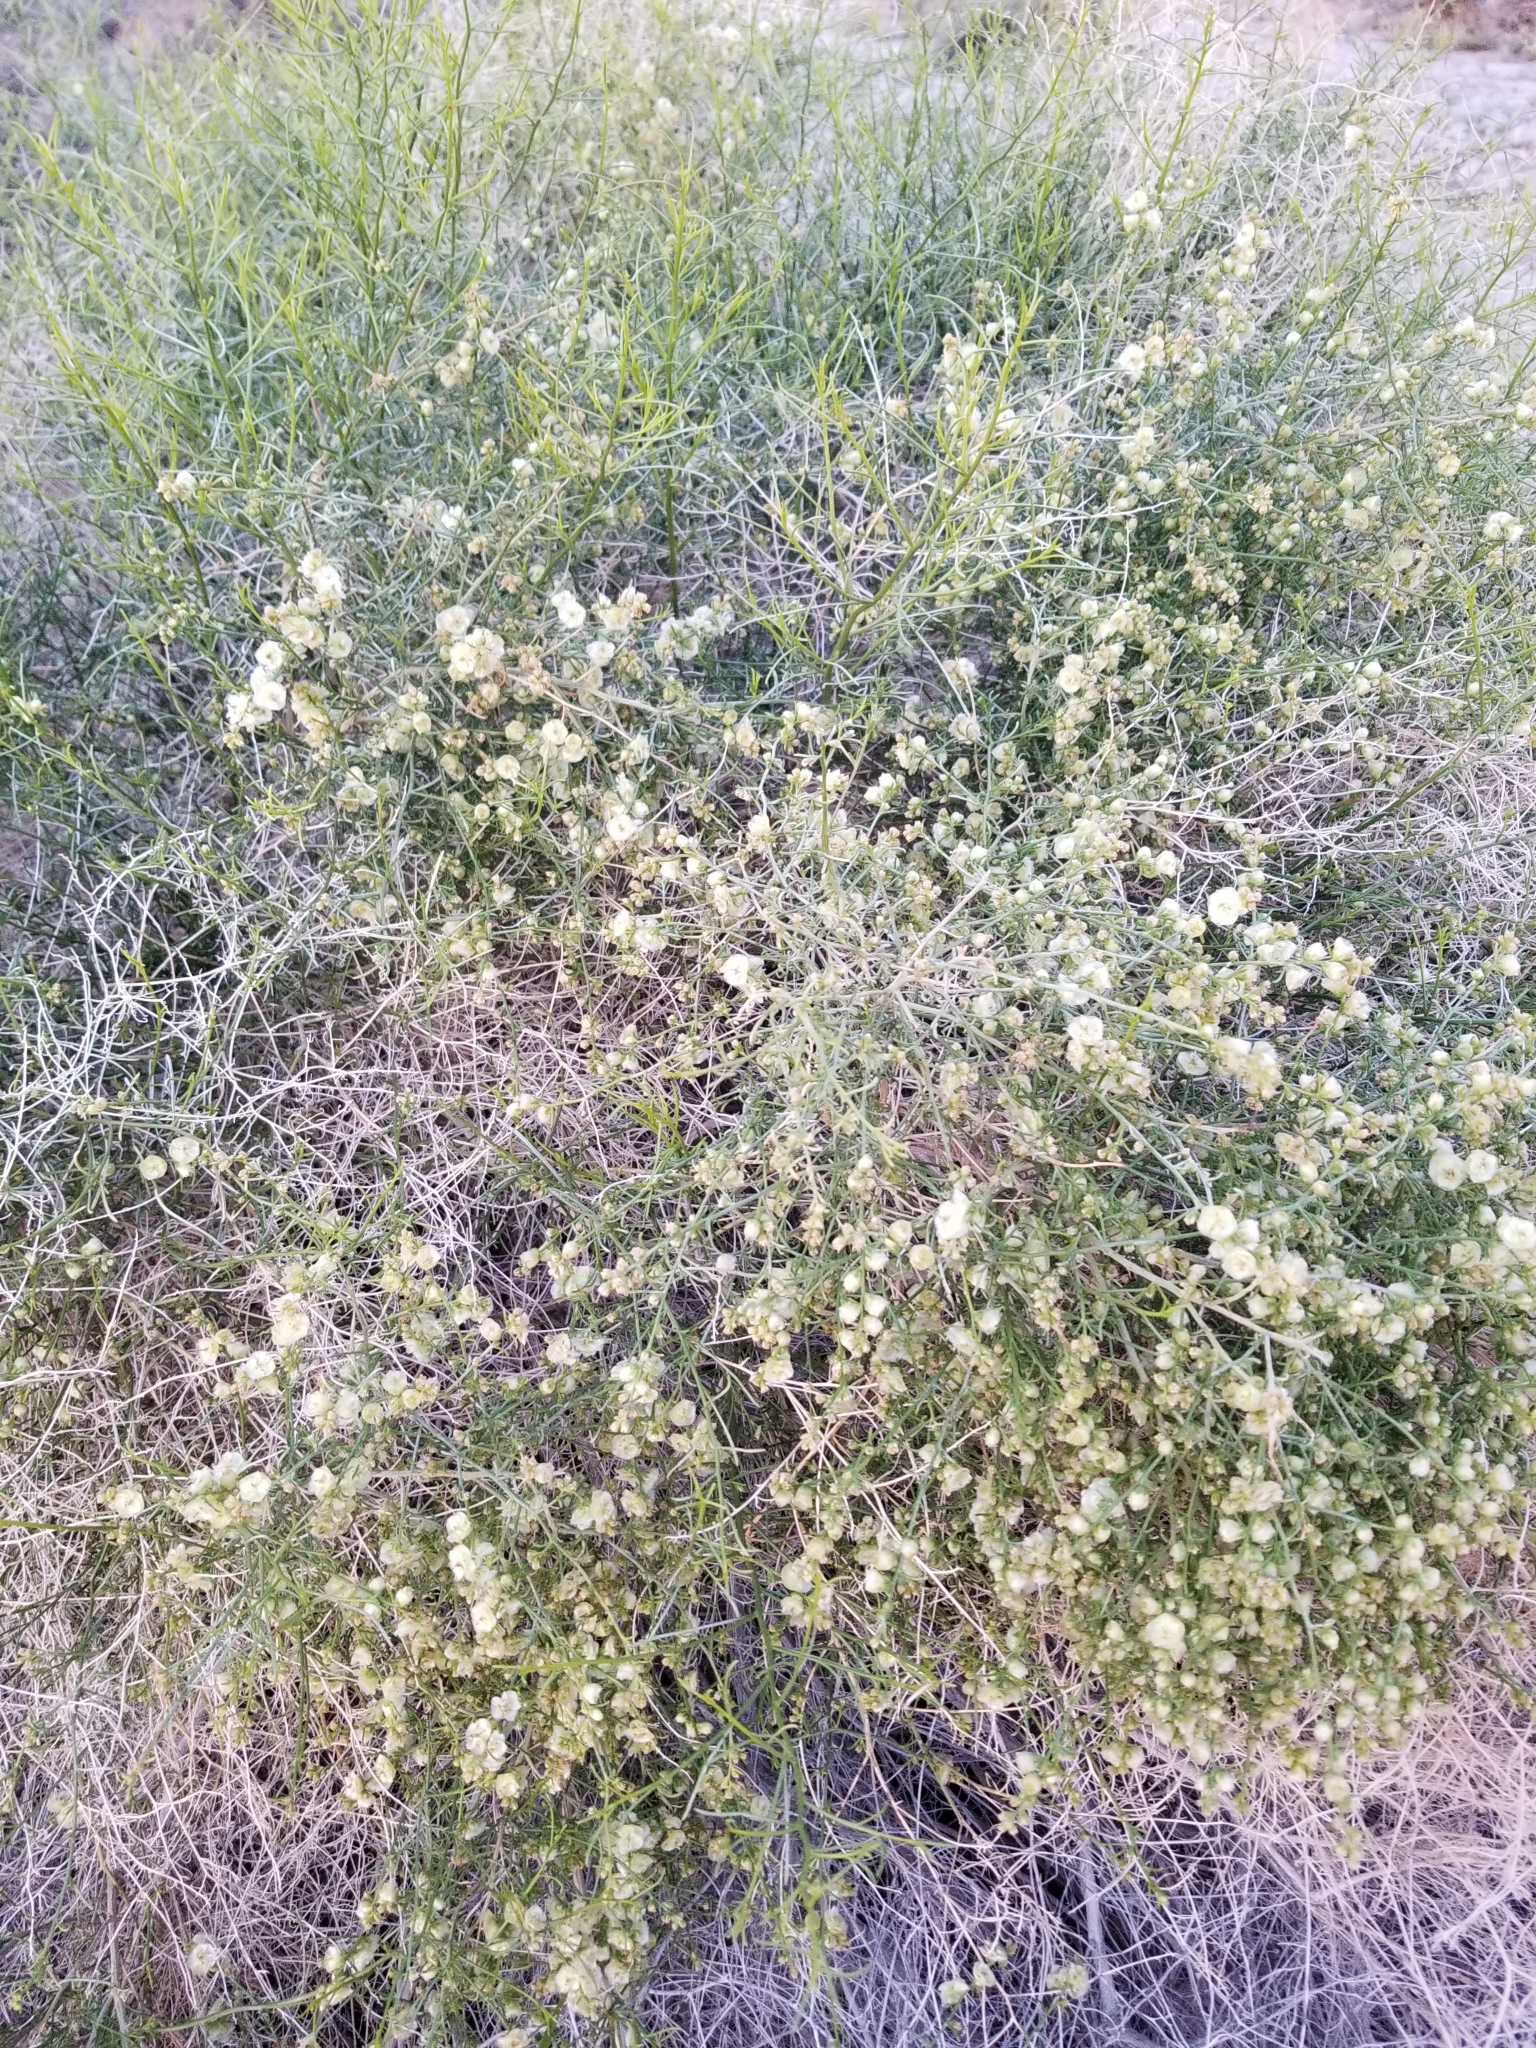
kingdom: Plantae
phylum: Tracheophyta
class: Magnoliopsida
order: Asterales
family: Asteraceae
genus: Ambrosia
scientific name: Ambrosia salsola
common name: Burrobrush
